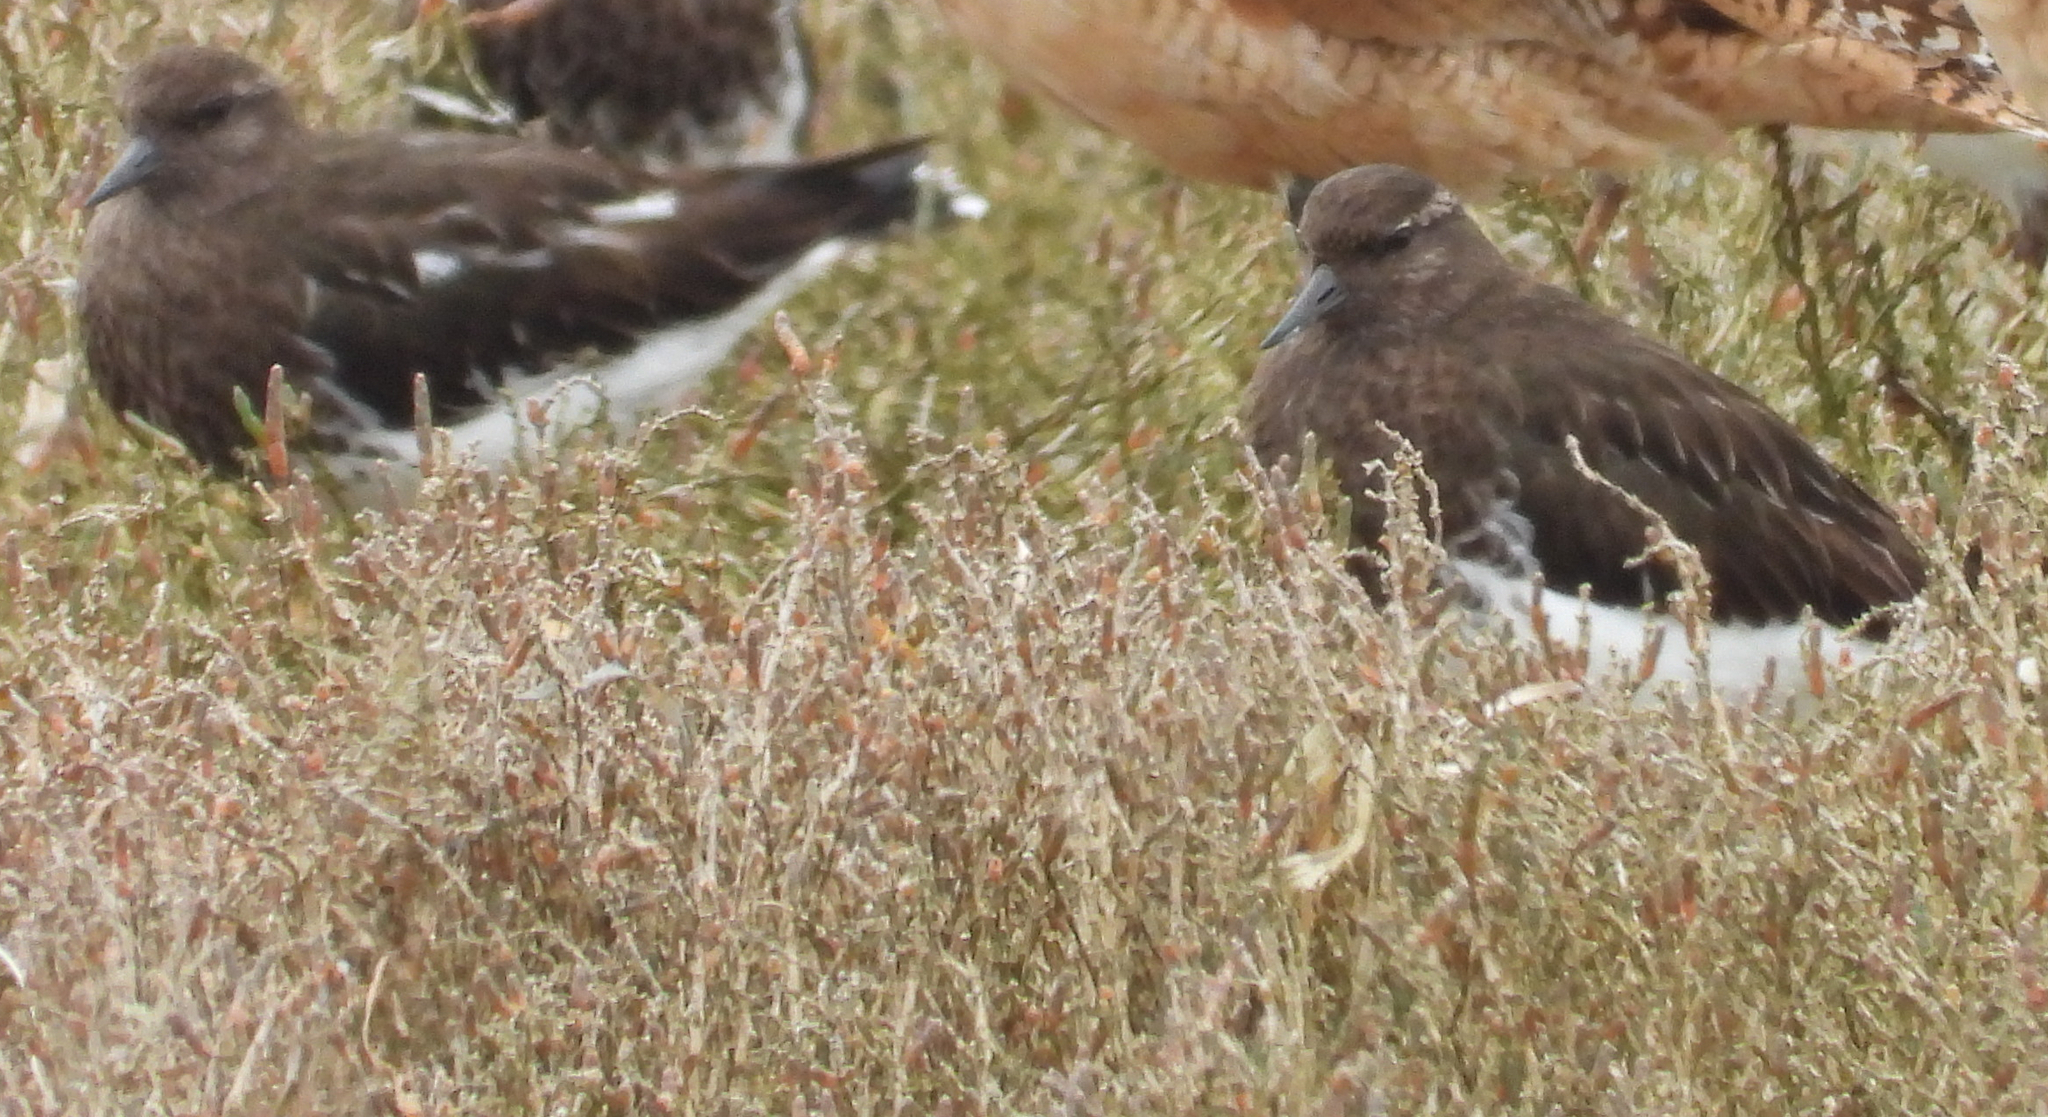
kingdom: Animalia
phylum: Chordata
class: Aves
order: Charadriiformes
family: Scolopacidae
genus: Arenaria
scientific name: Arenaria melanocephala
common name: Black turnstone
